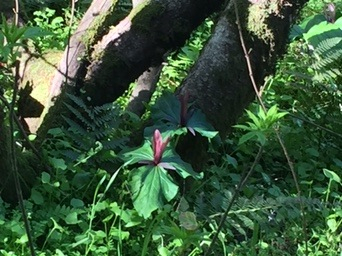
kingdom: Plantae
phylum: Tracheophyta
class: Liliopsida
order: Liliales
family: Melanthiaceae
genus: Trillium
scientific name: Trillium chloropetalum
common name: Giant trillium
